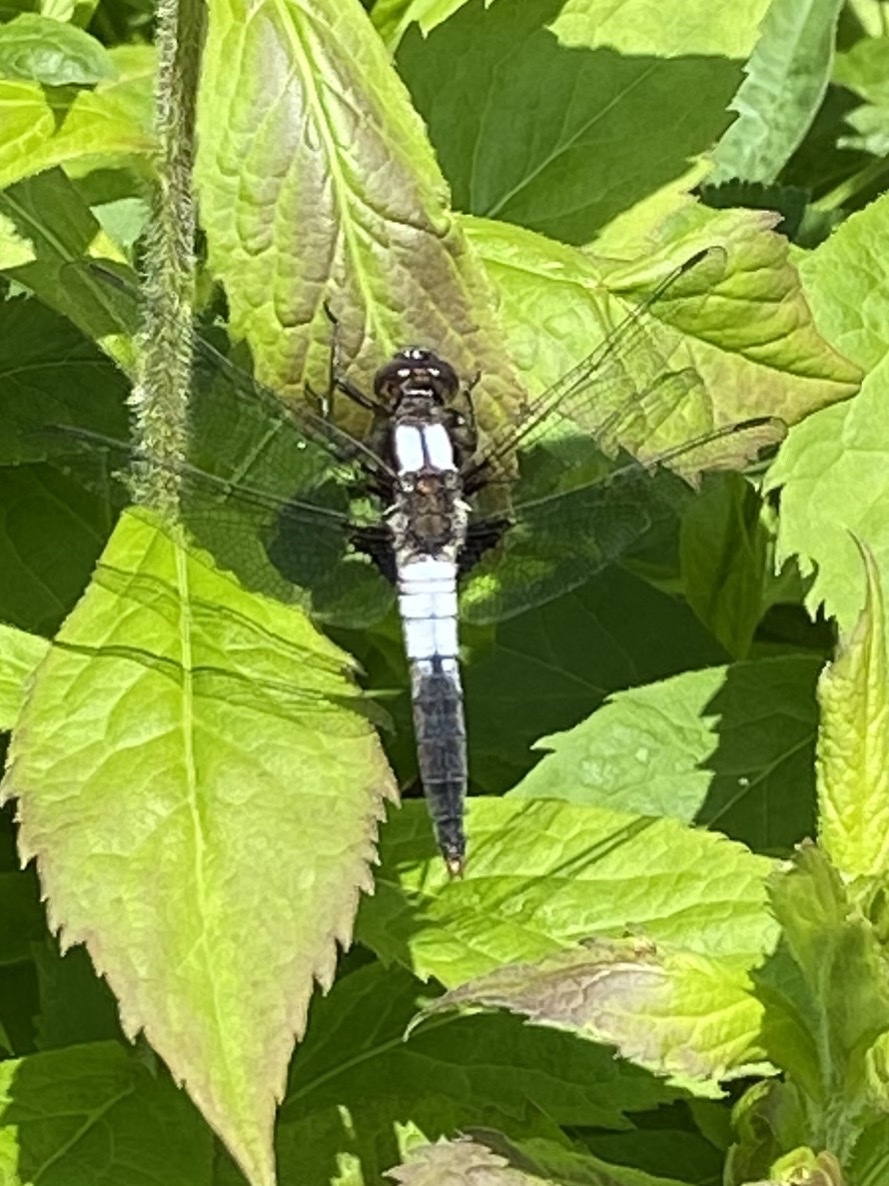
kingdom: Animalia
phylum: Arthropoda
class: Insecta
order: Odonata
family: Libellulidae
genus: Ladona
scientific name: Ladona julia
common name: Chalk-fronted corporal
